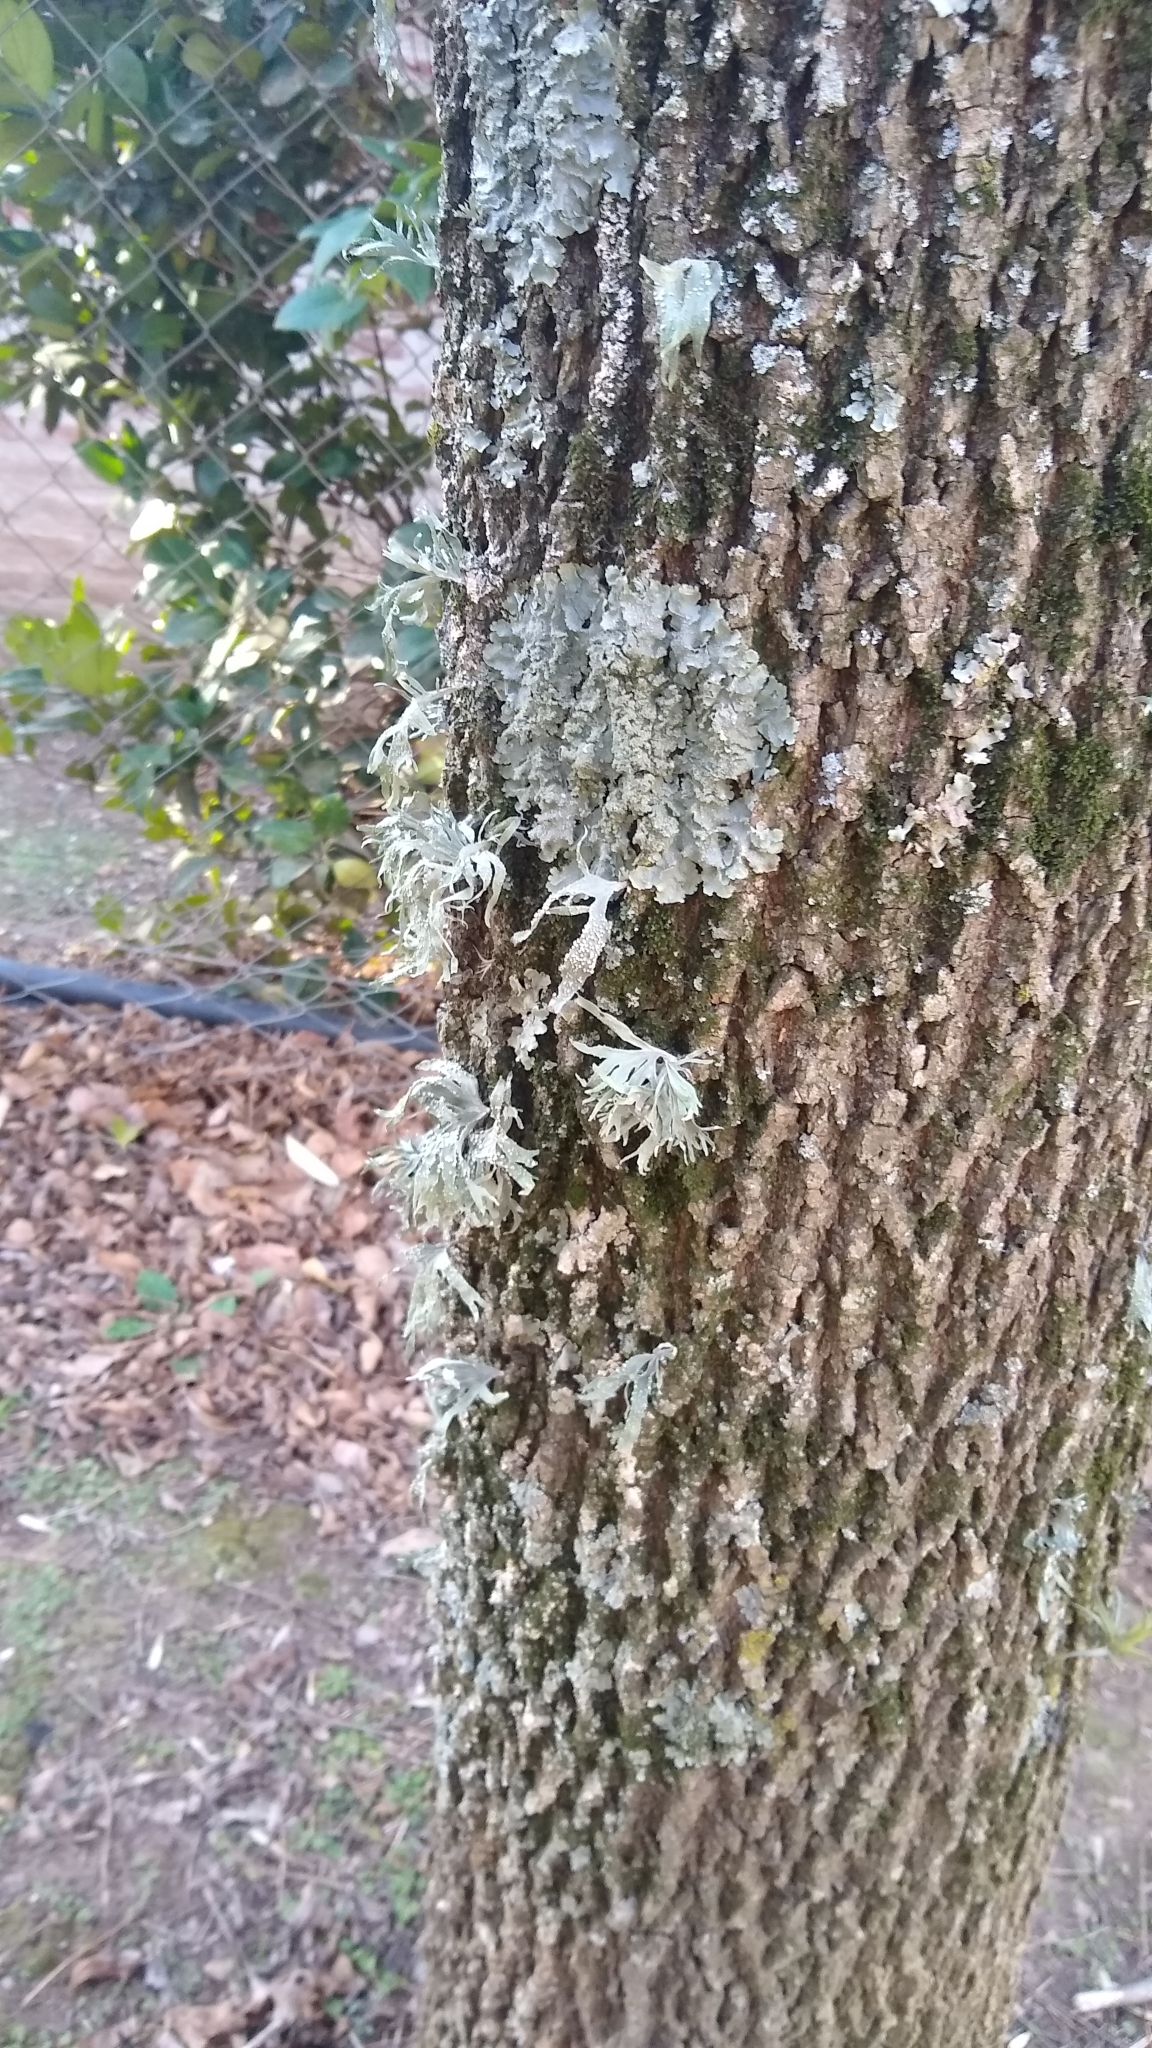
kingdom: Fungi
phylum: Ascomycota
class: Lecanoromycetes
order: Lecanorales
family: Ramalinaceae
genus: Ramalina
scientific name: Ramalina celastri
